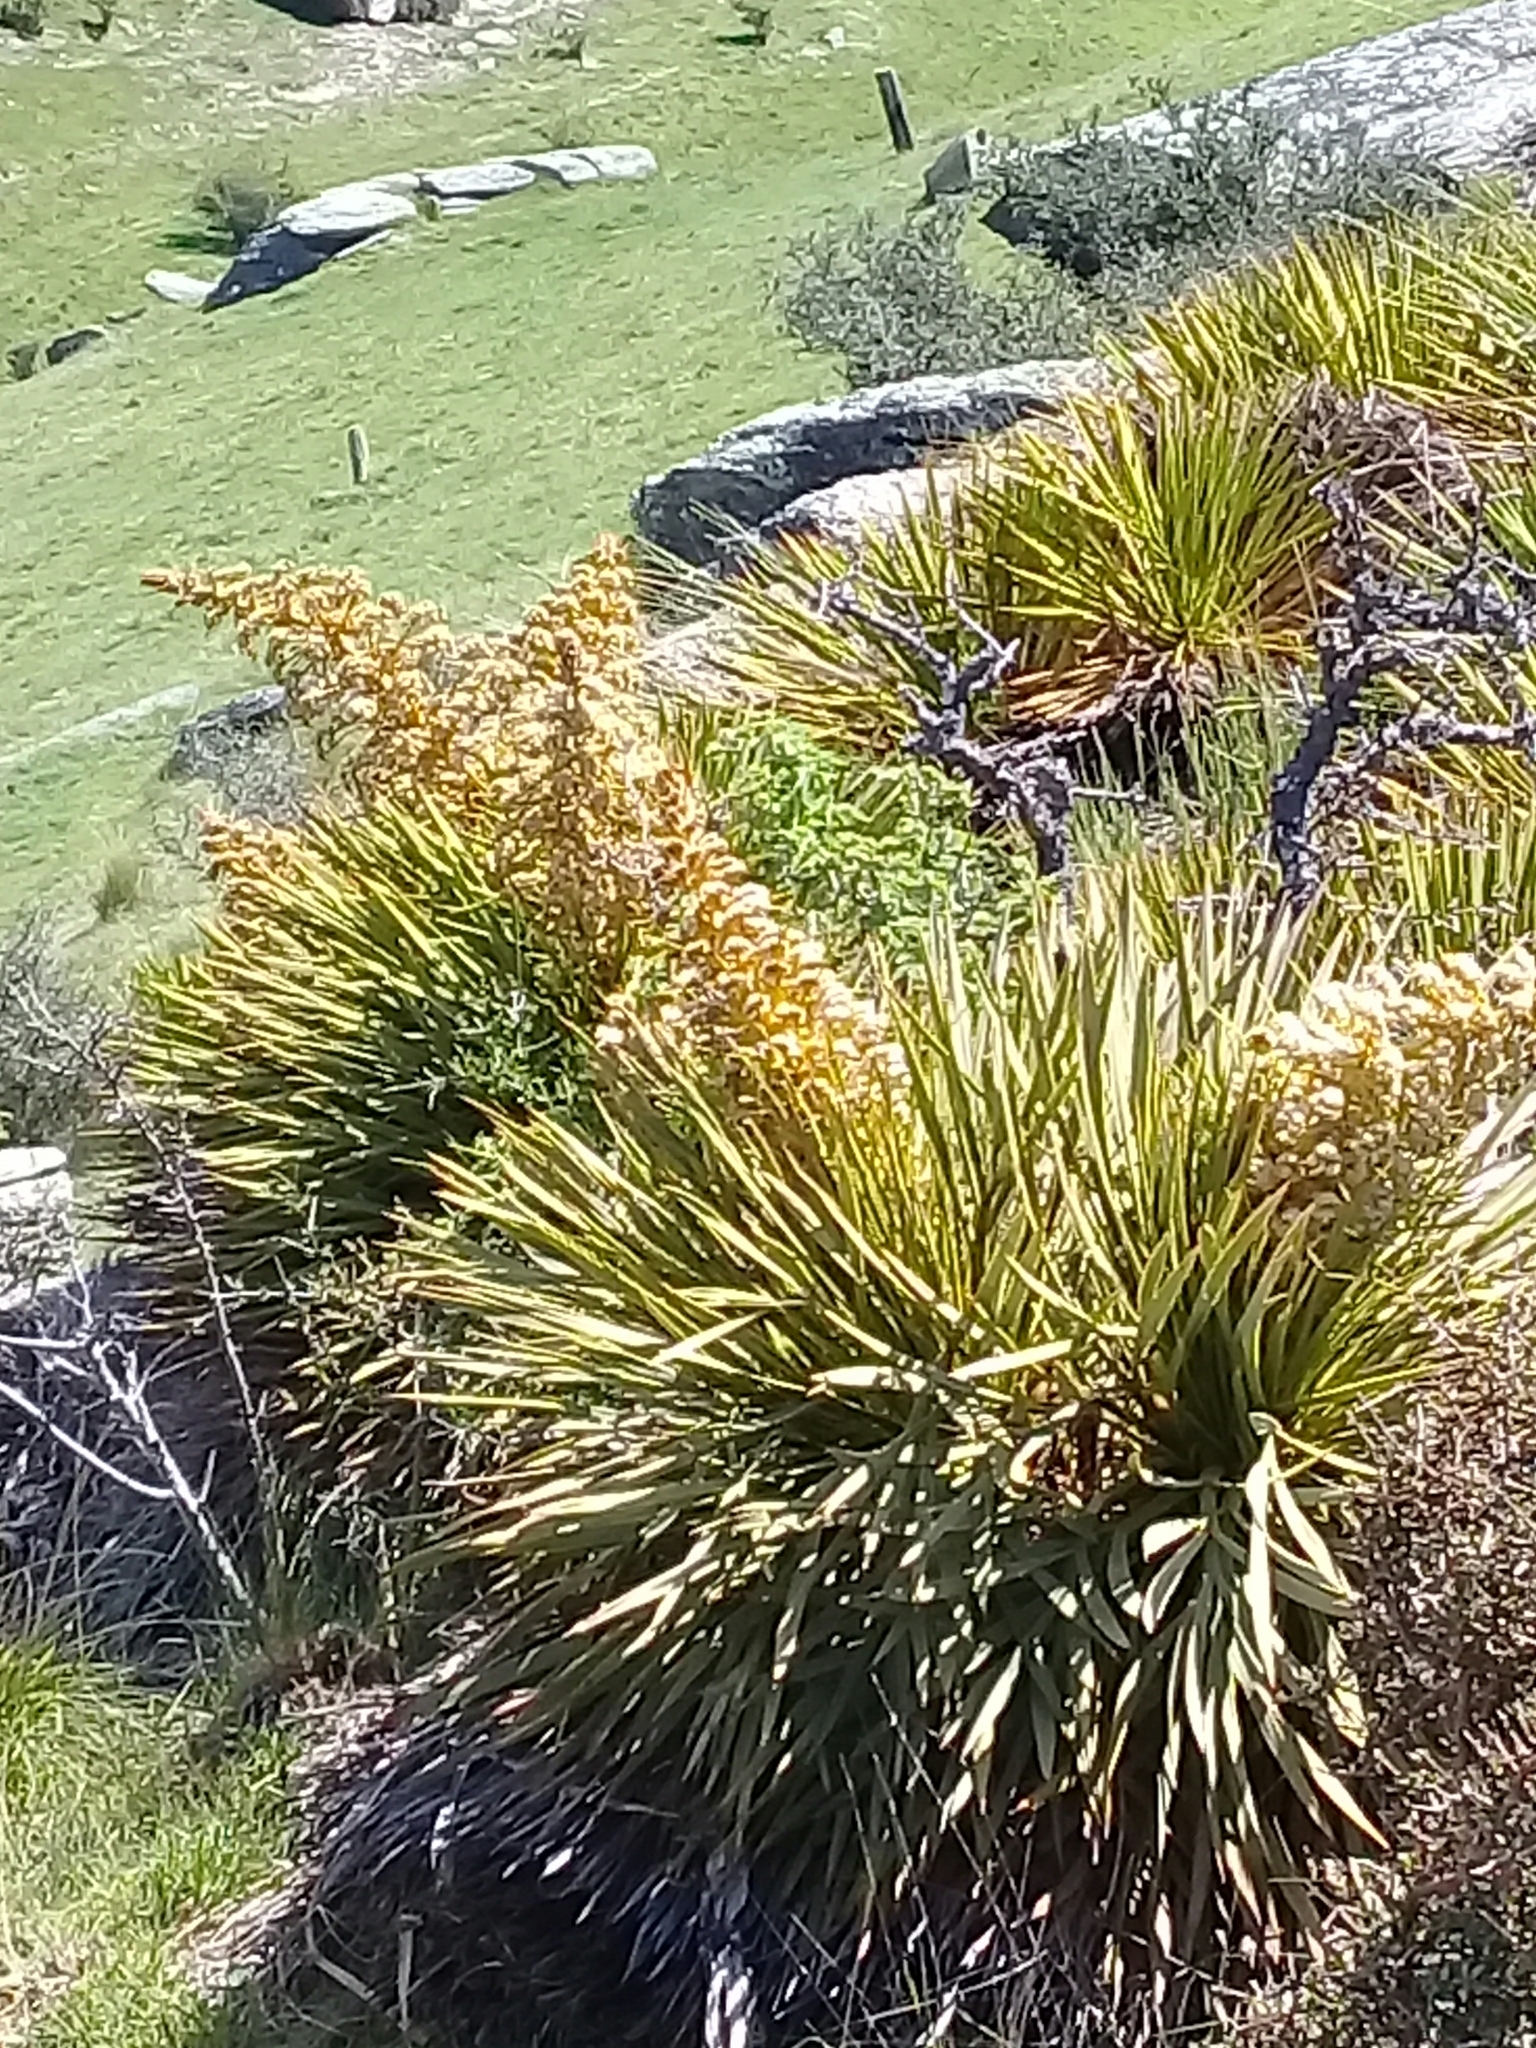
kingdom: Plantae
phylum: Tracheophyta
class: Magnoliopsida
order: Apiales
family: Apiaceae
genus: Aciphylla
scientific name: Aciphylla aurea
